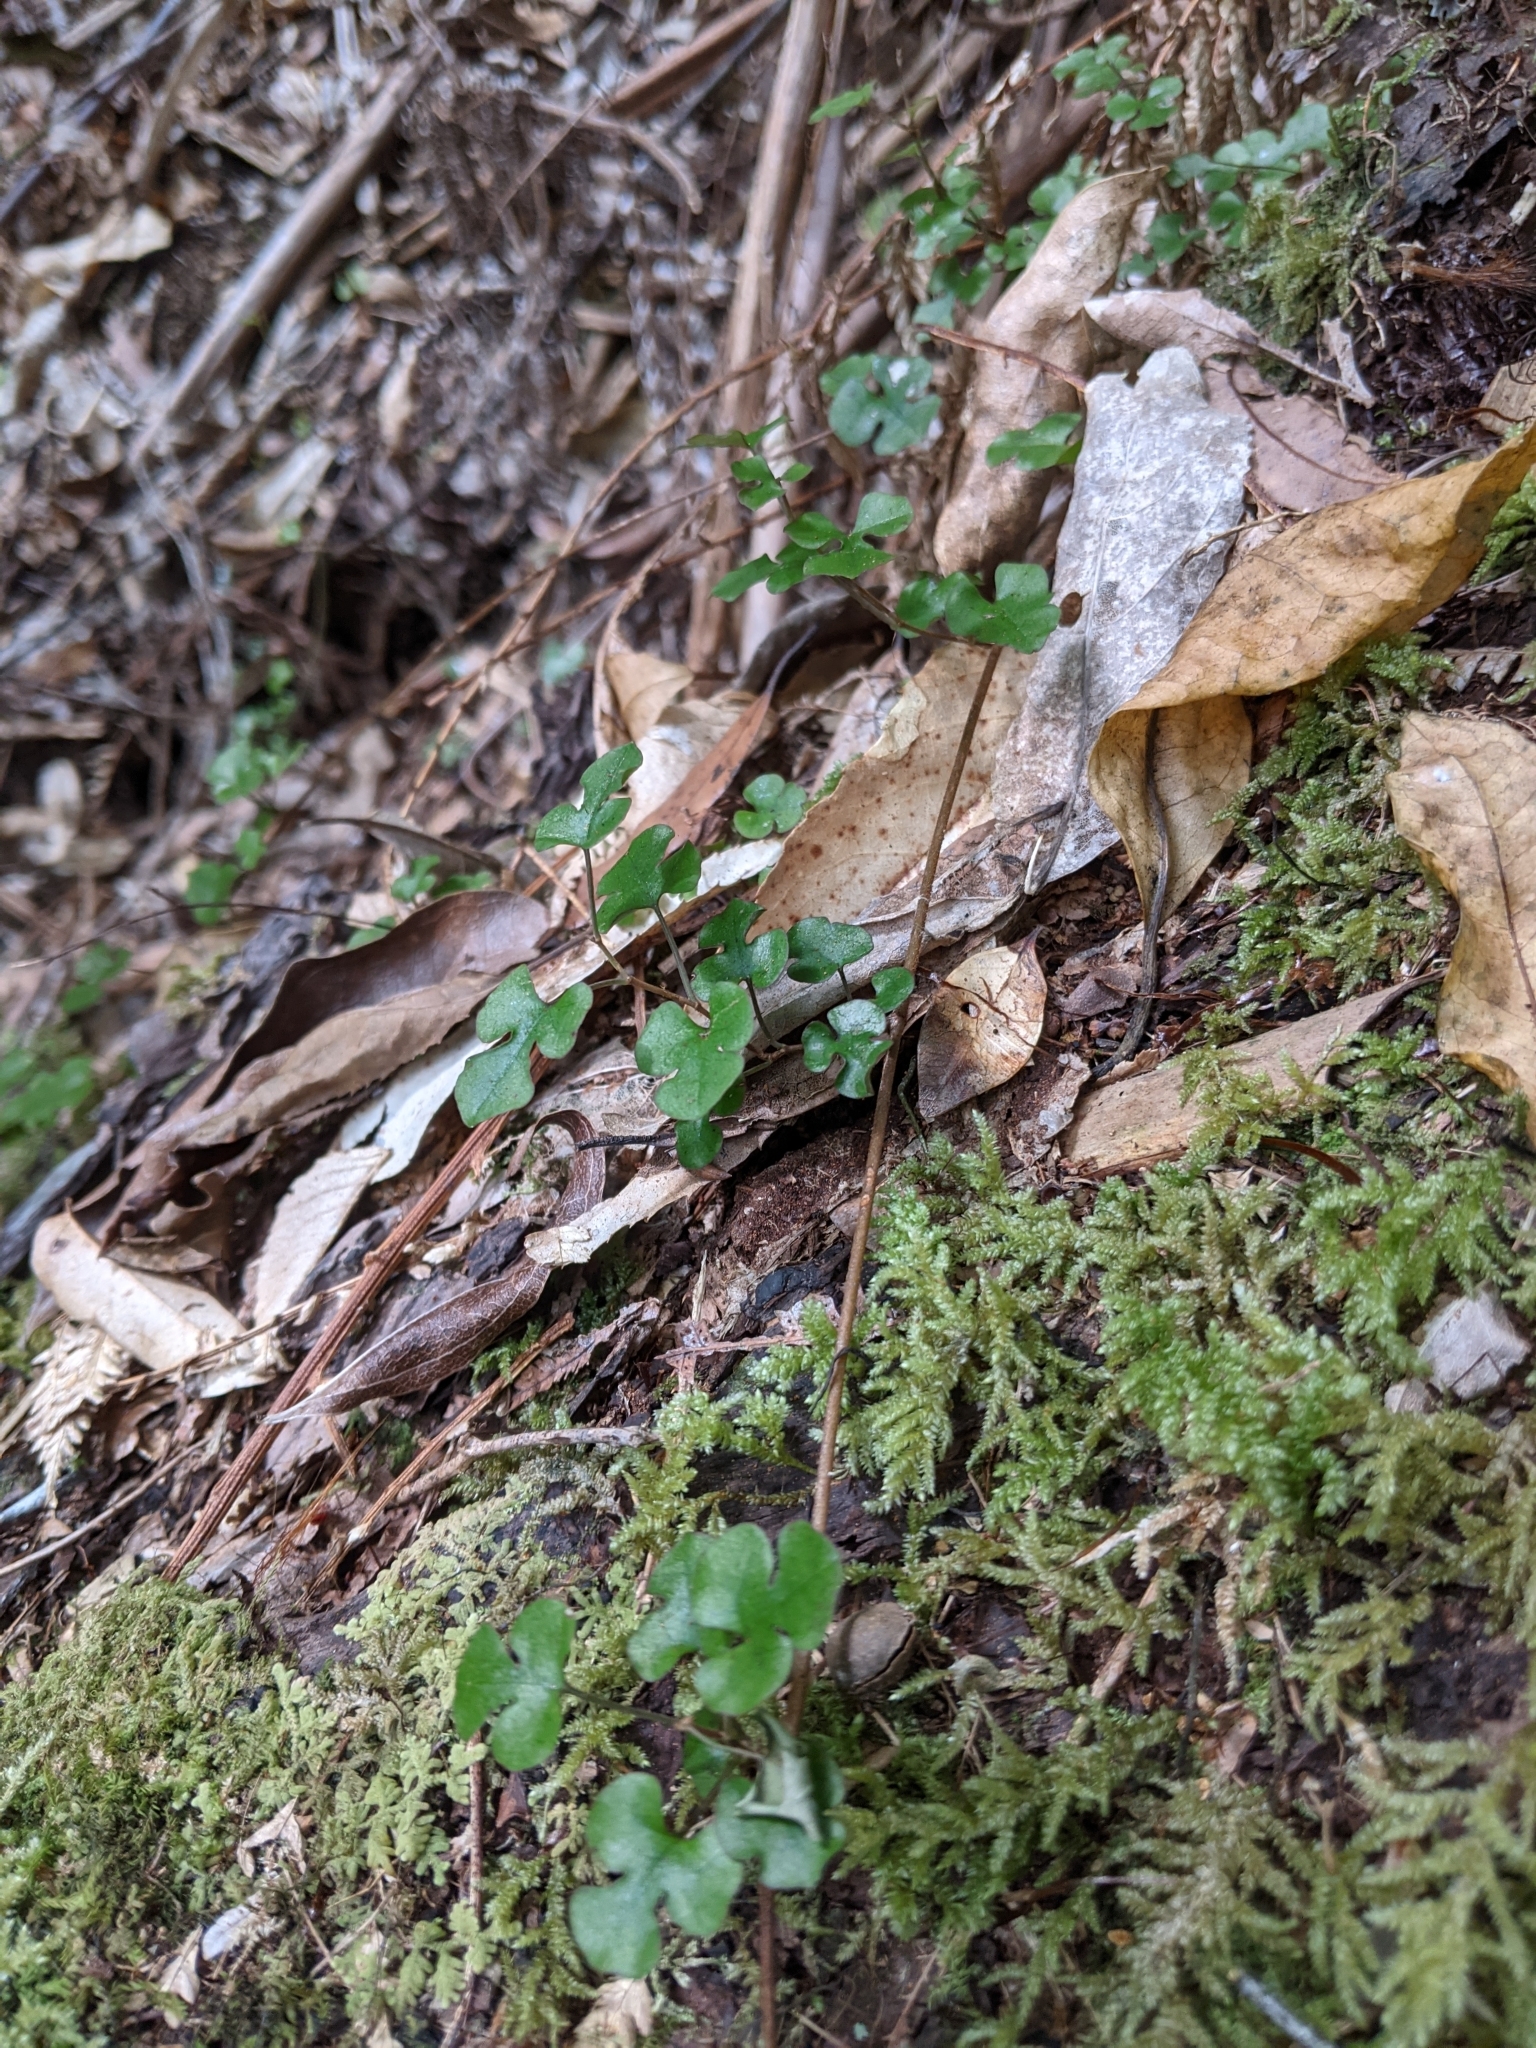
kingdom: Plantae
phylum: Tracheophyta
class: Magnoliopsida
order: Caryophyllales
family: Polygonaceae
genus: Muehlenbeckia
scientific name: Muehlenbeckia australis
